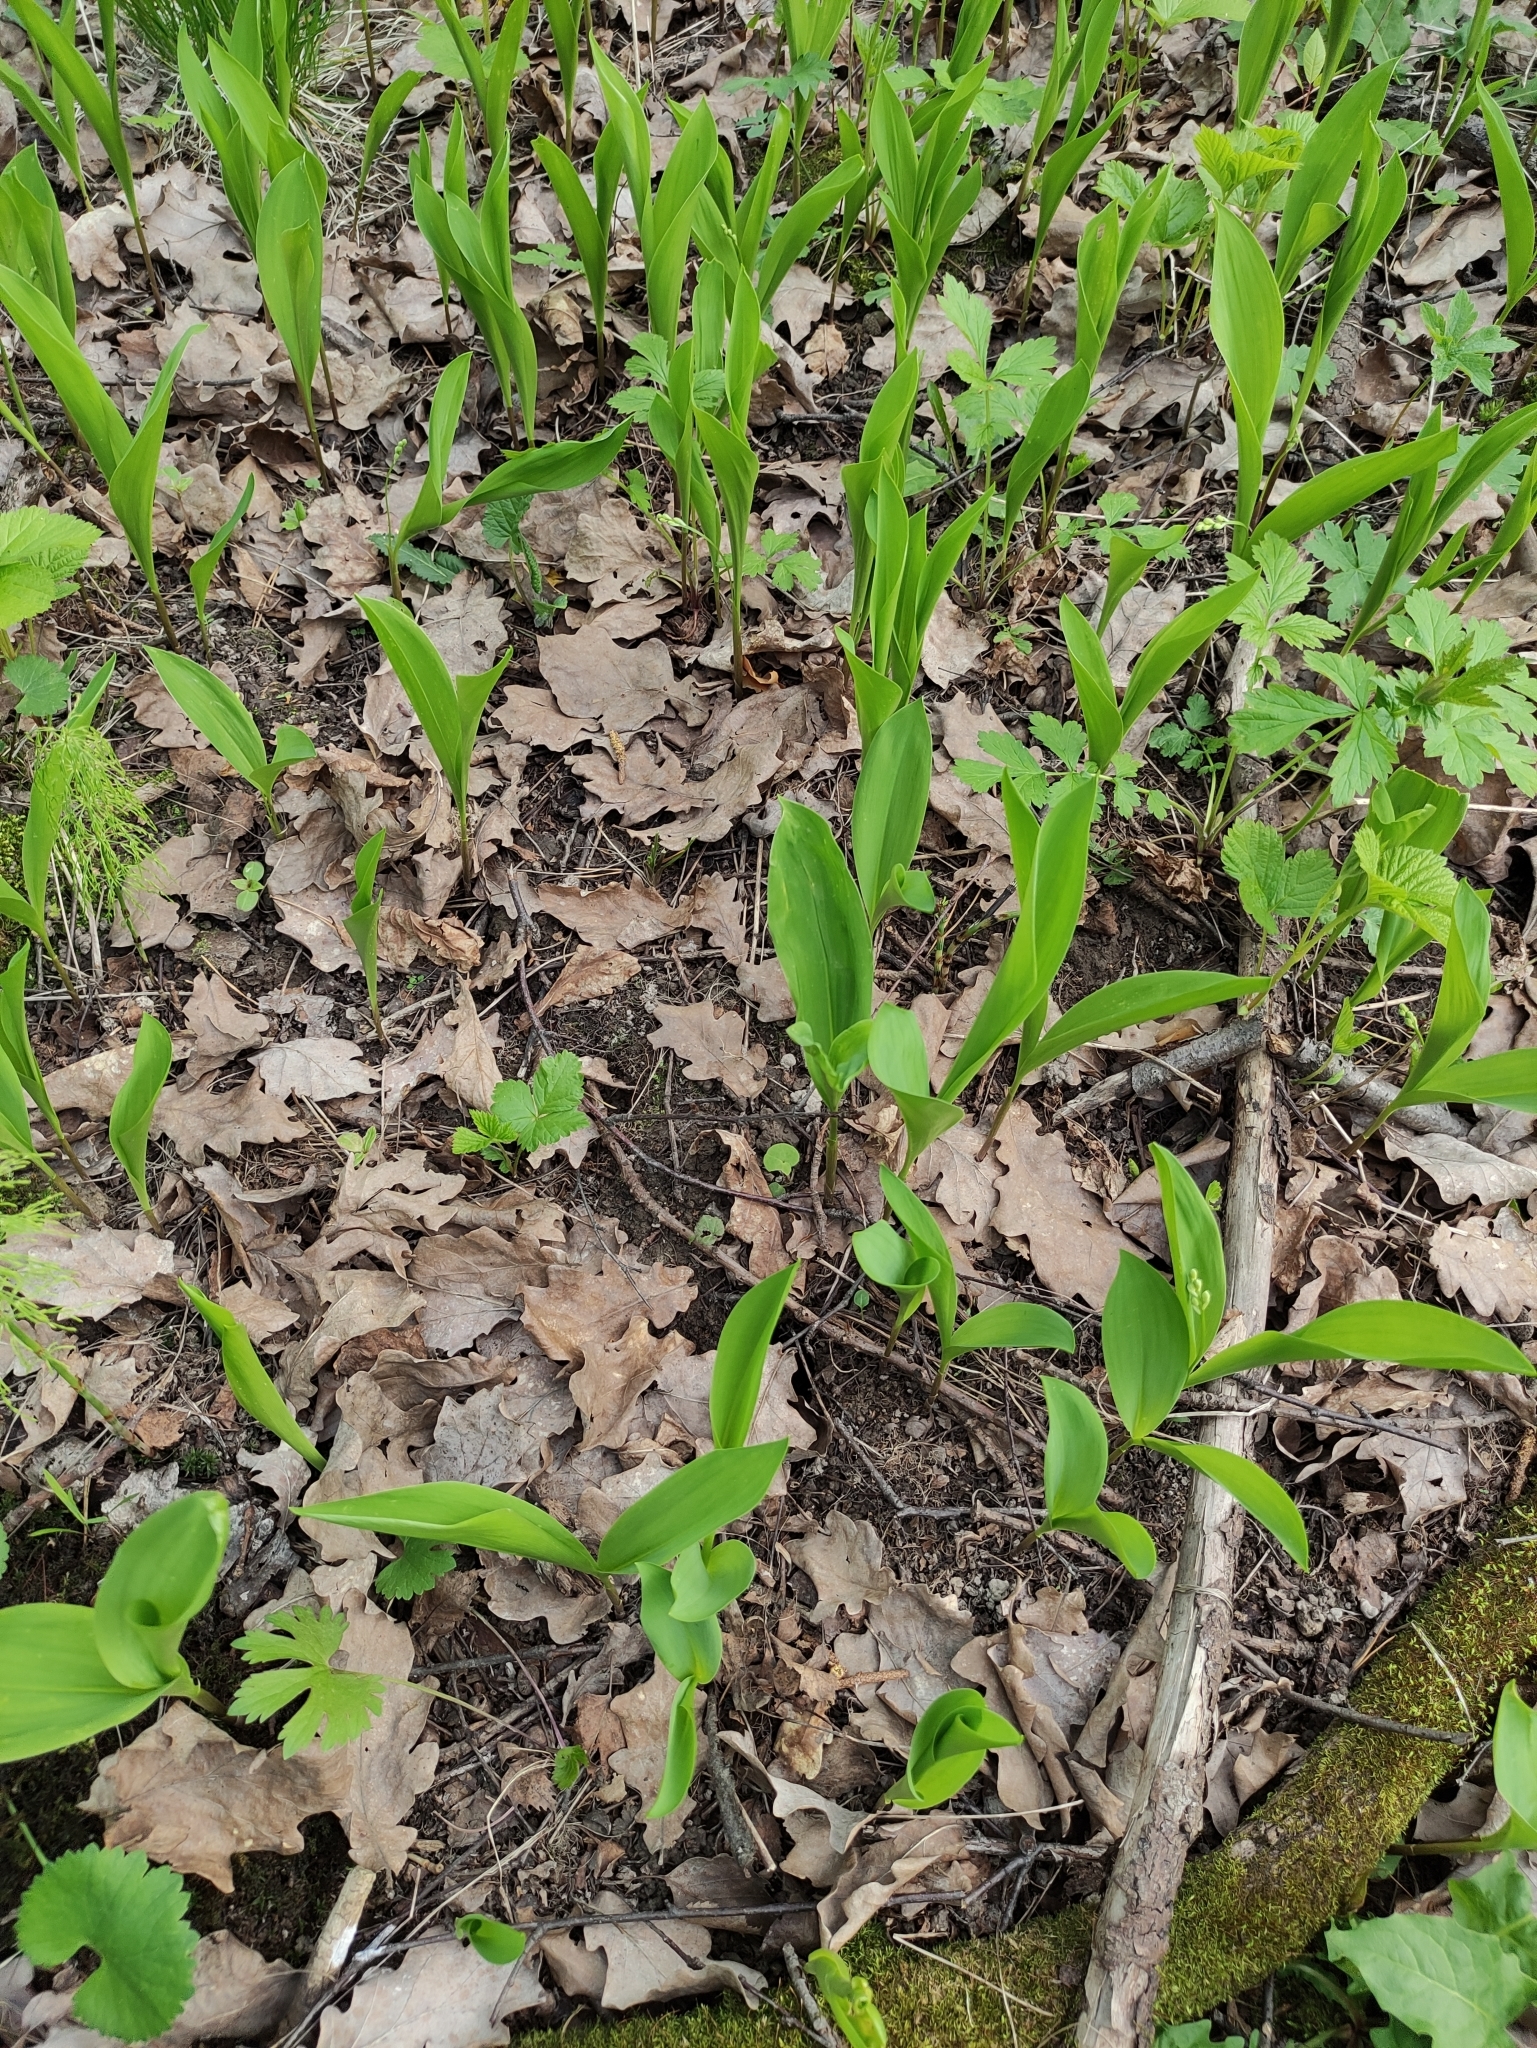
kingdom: Plantae
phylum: Tracheophyta
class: Liliopsida
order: Asparagales
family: Asparagaceae
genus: Convallaria
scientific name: Convallaria majalis
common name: Lily-of-the-valley
